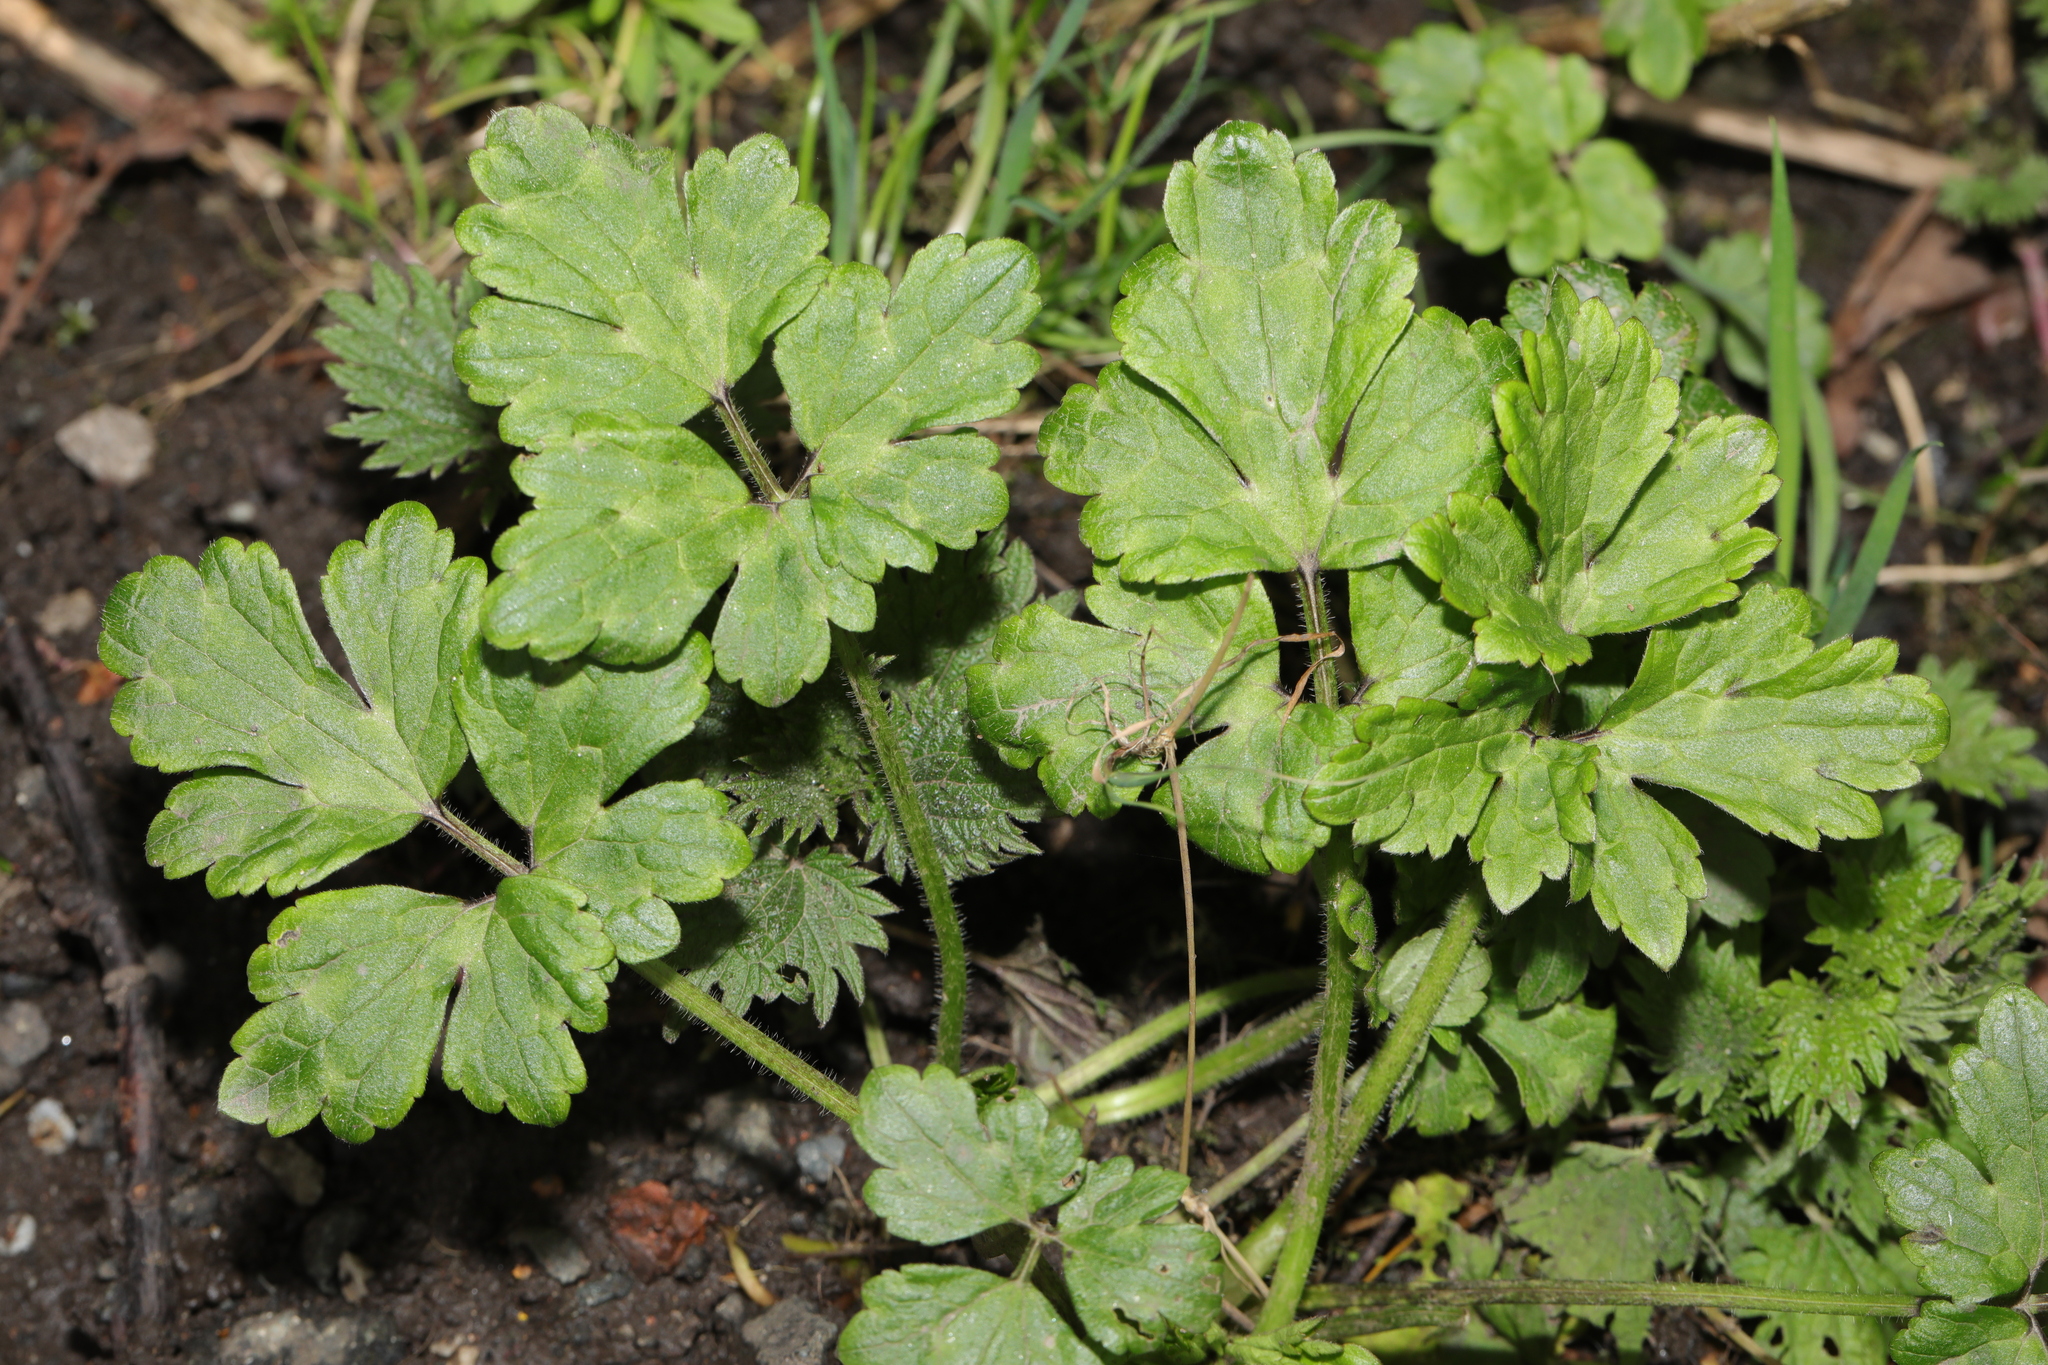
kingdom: Plantae
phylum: Tracheophyta
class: Magnoliopsida
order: Ranunculales
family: Ranunculaceae
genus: Ranunculus
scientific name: Ranunculus repens
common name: Creeping buttercup
